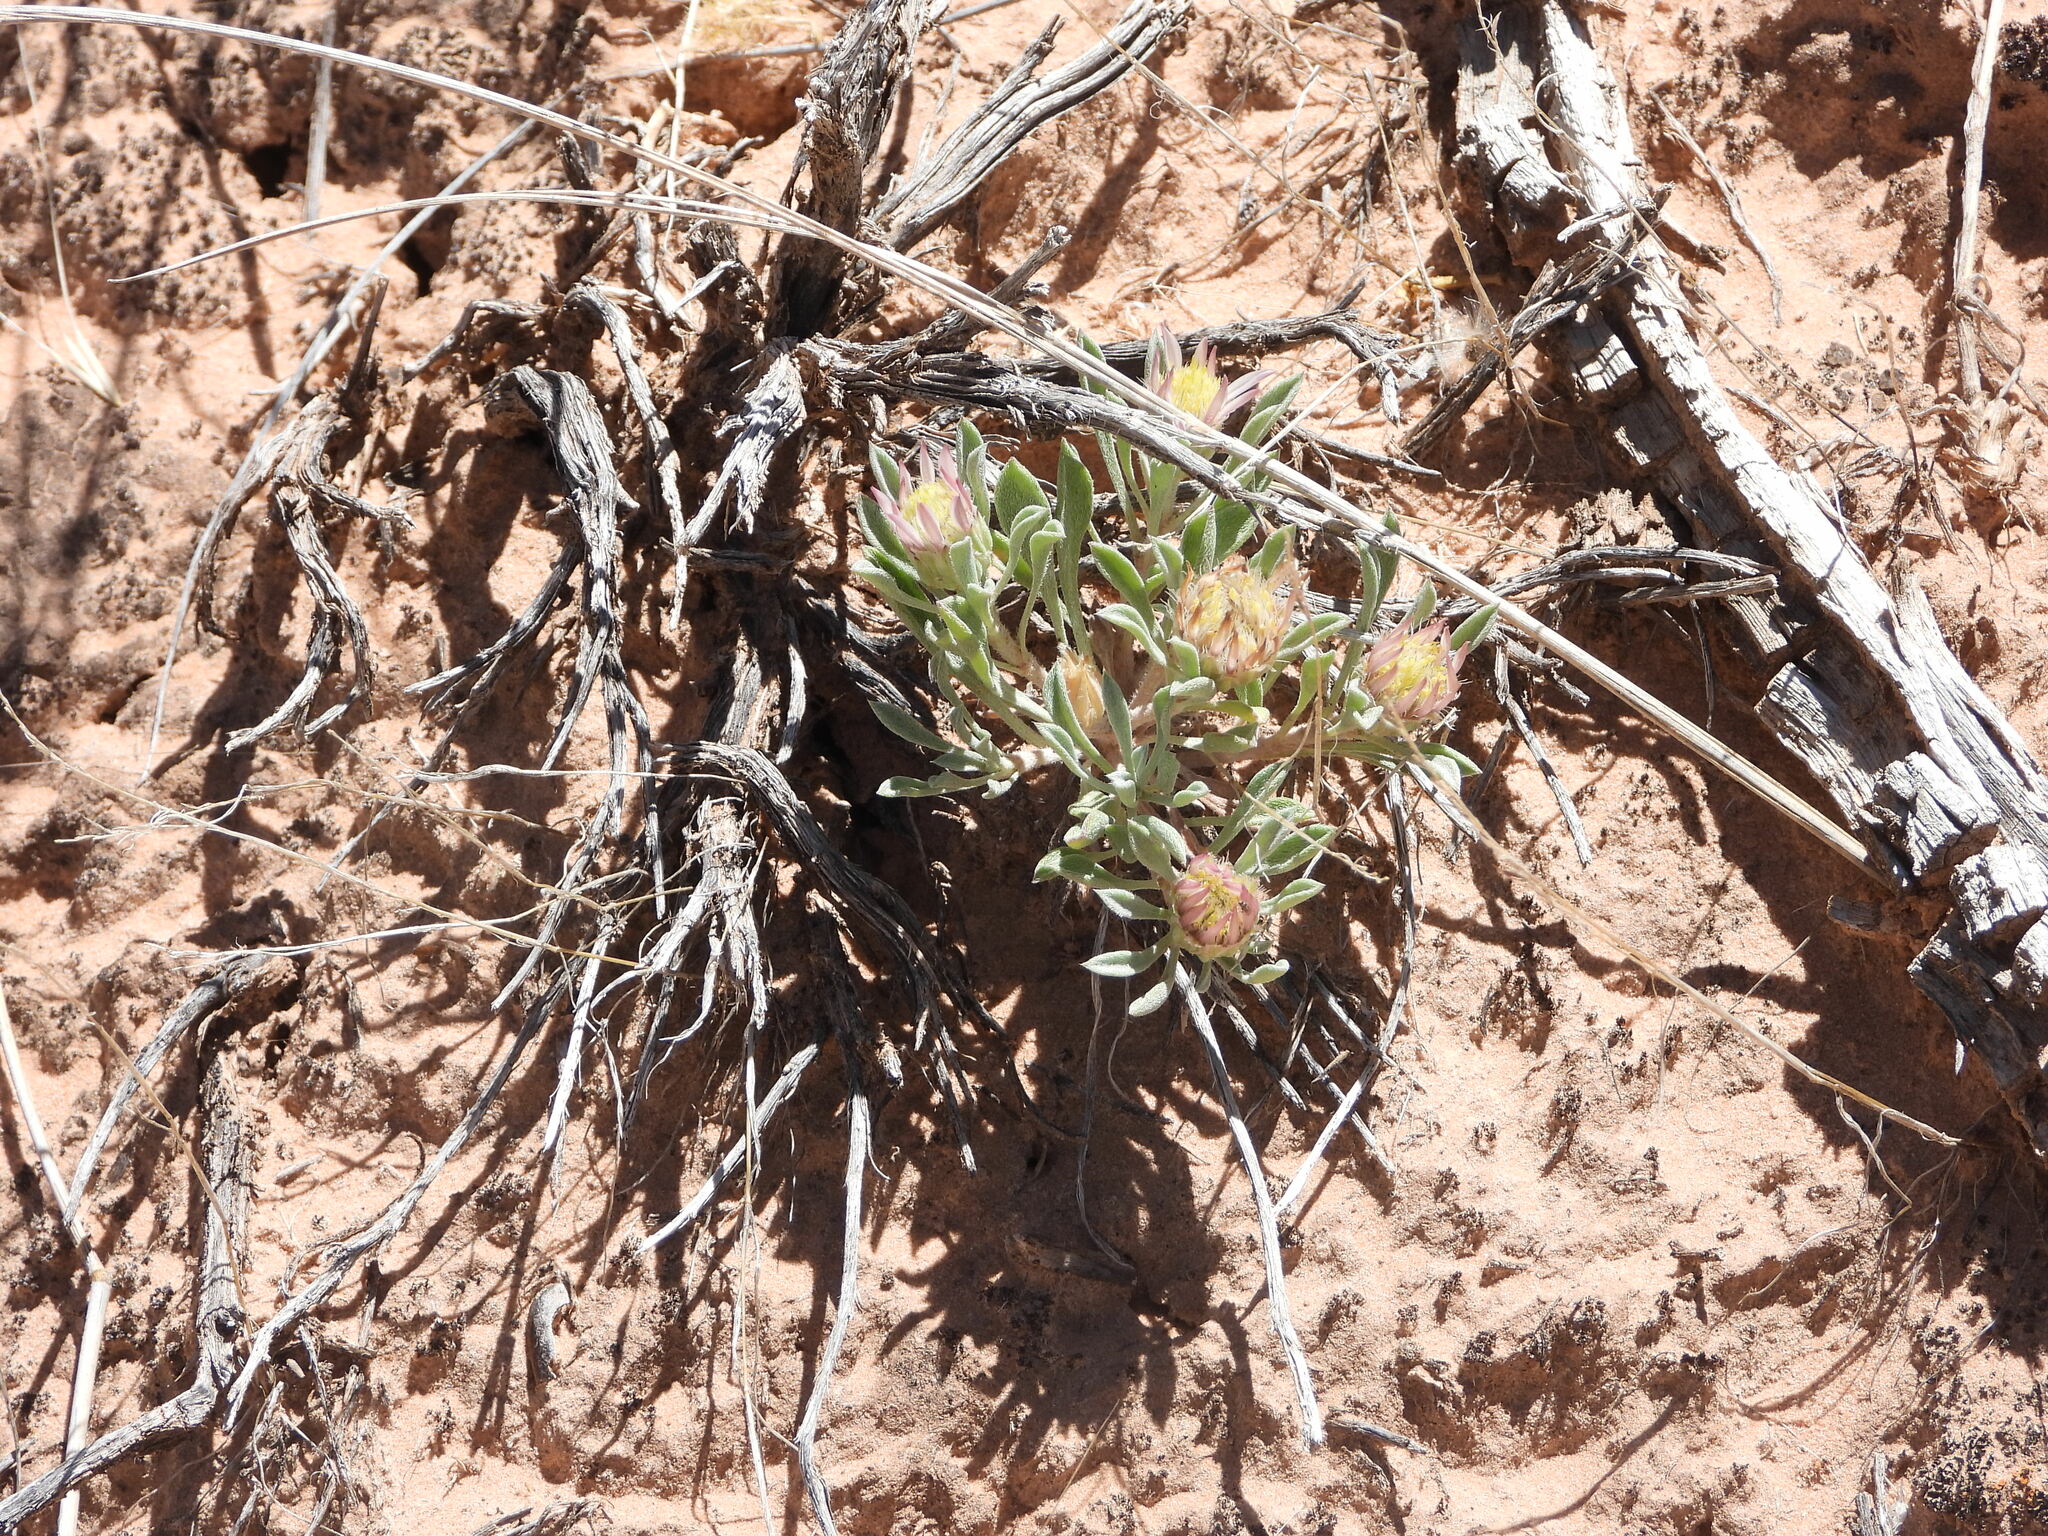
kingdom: Plantae
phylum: Tracheophyta
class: Magnoliopsida
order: Asterales
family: Asteraceae
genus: Townsendia
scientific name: Townsendia incana
